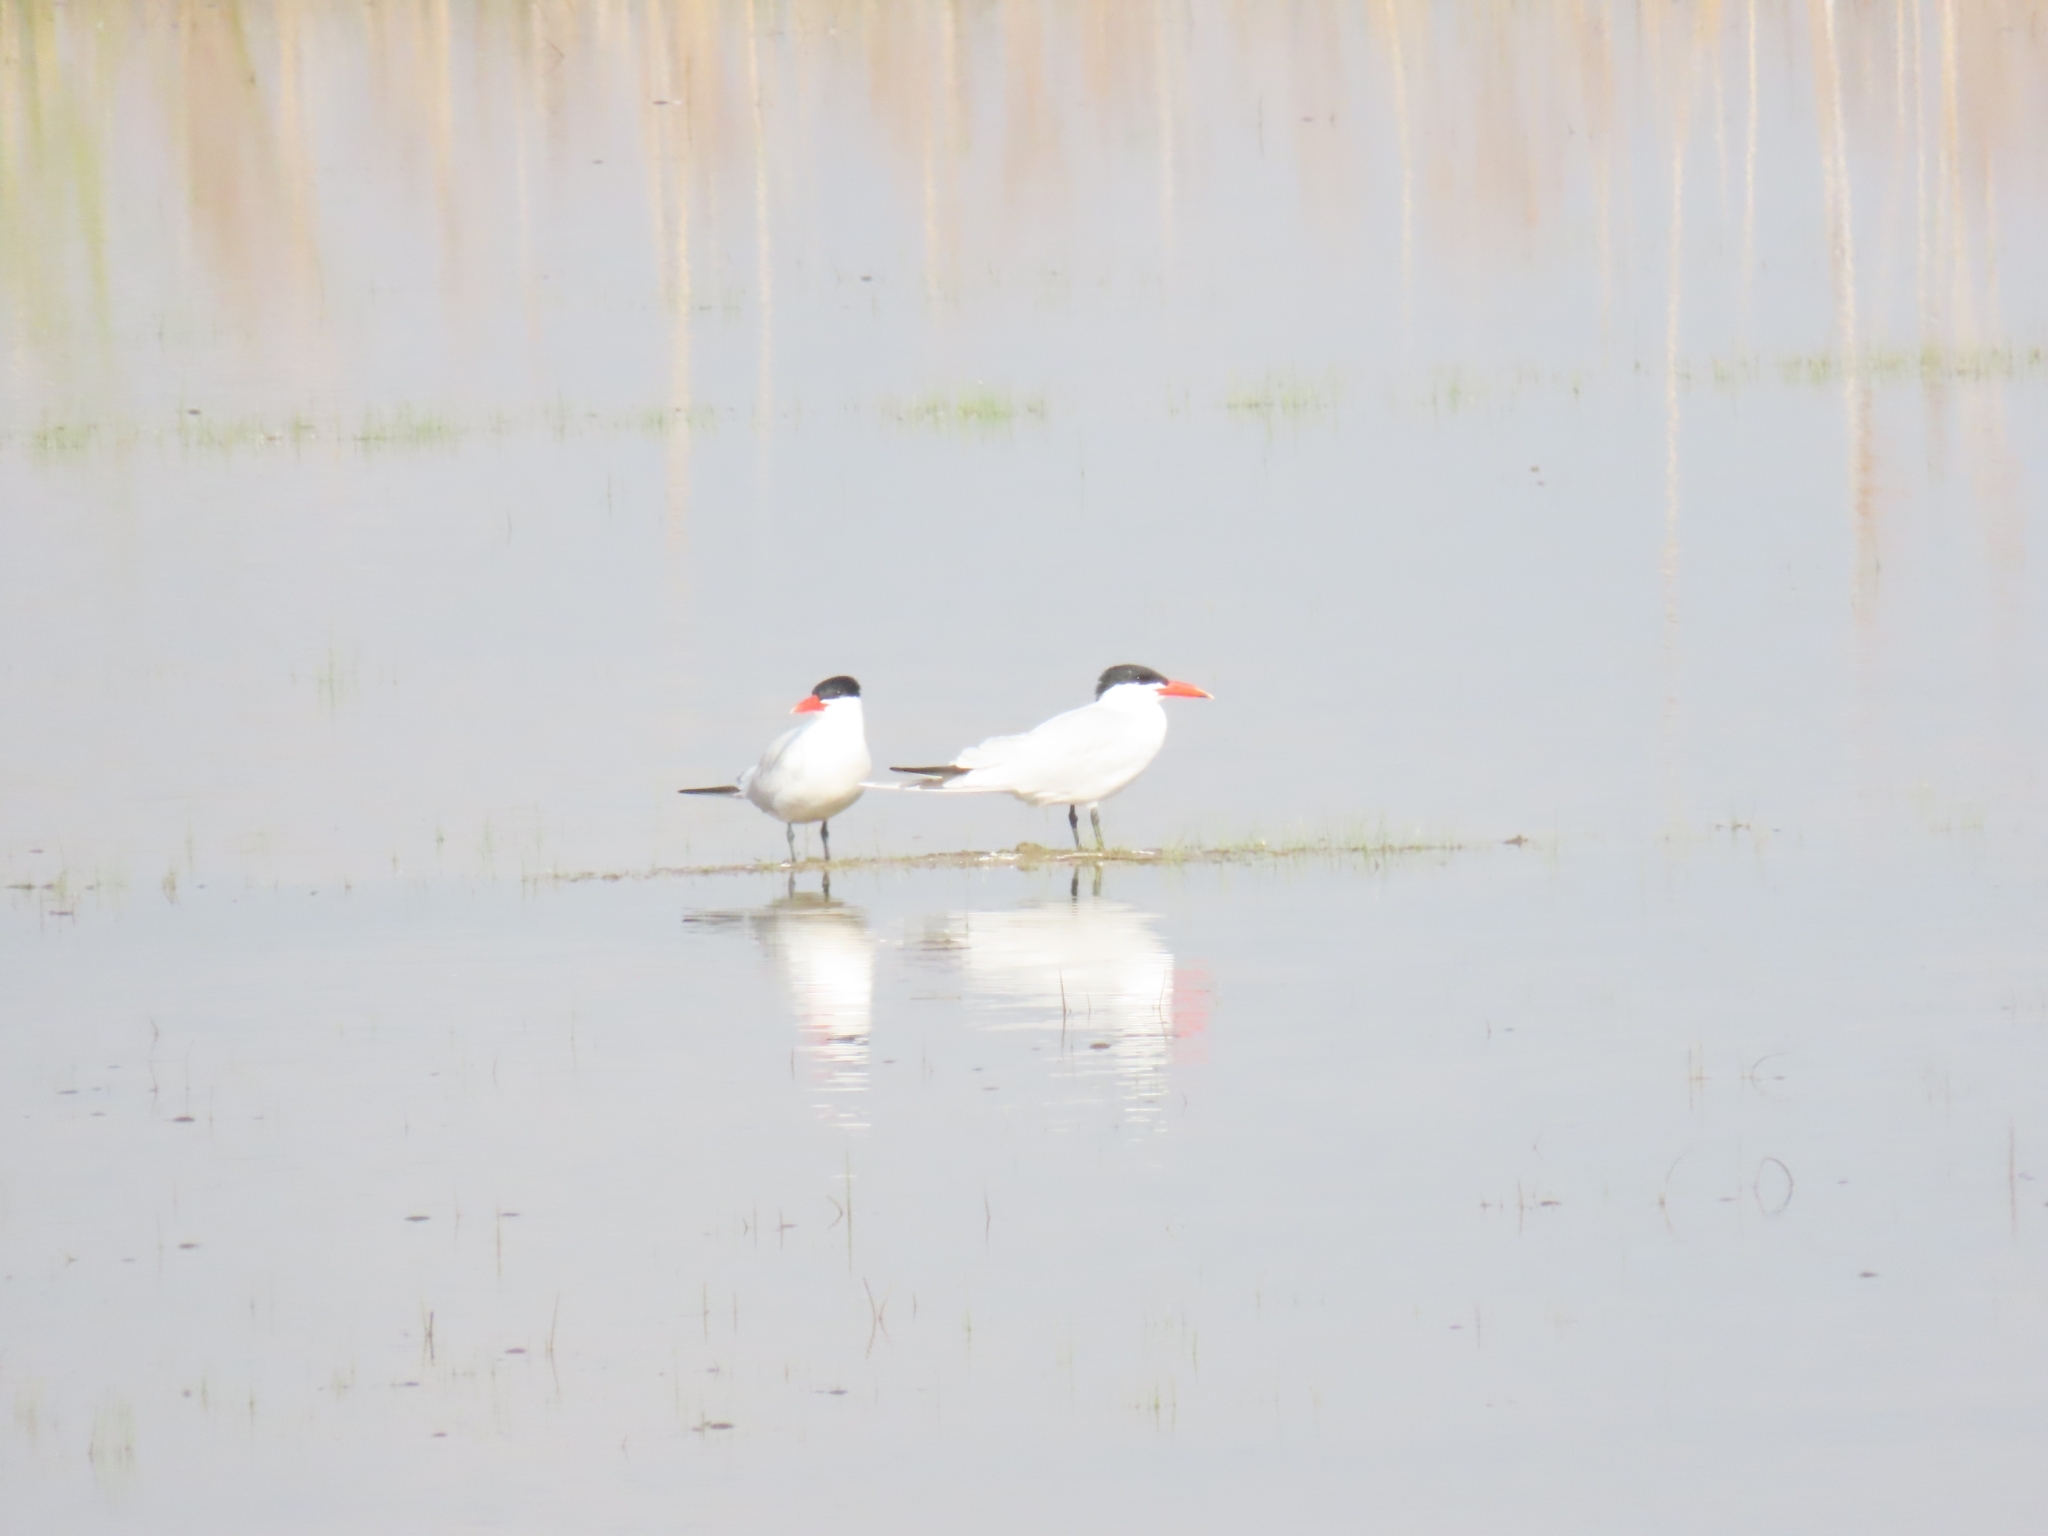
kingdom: Animalia
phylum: Chordata
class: Aves
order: Charadriiformes
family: Laridae
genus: Hydroprogne
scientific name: Hydroprogne caspia
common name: Caspian tern
